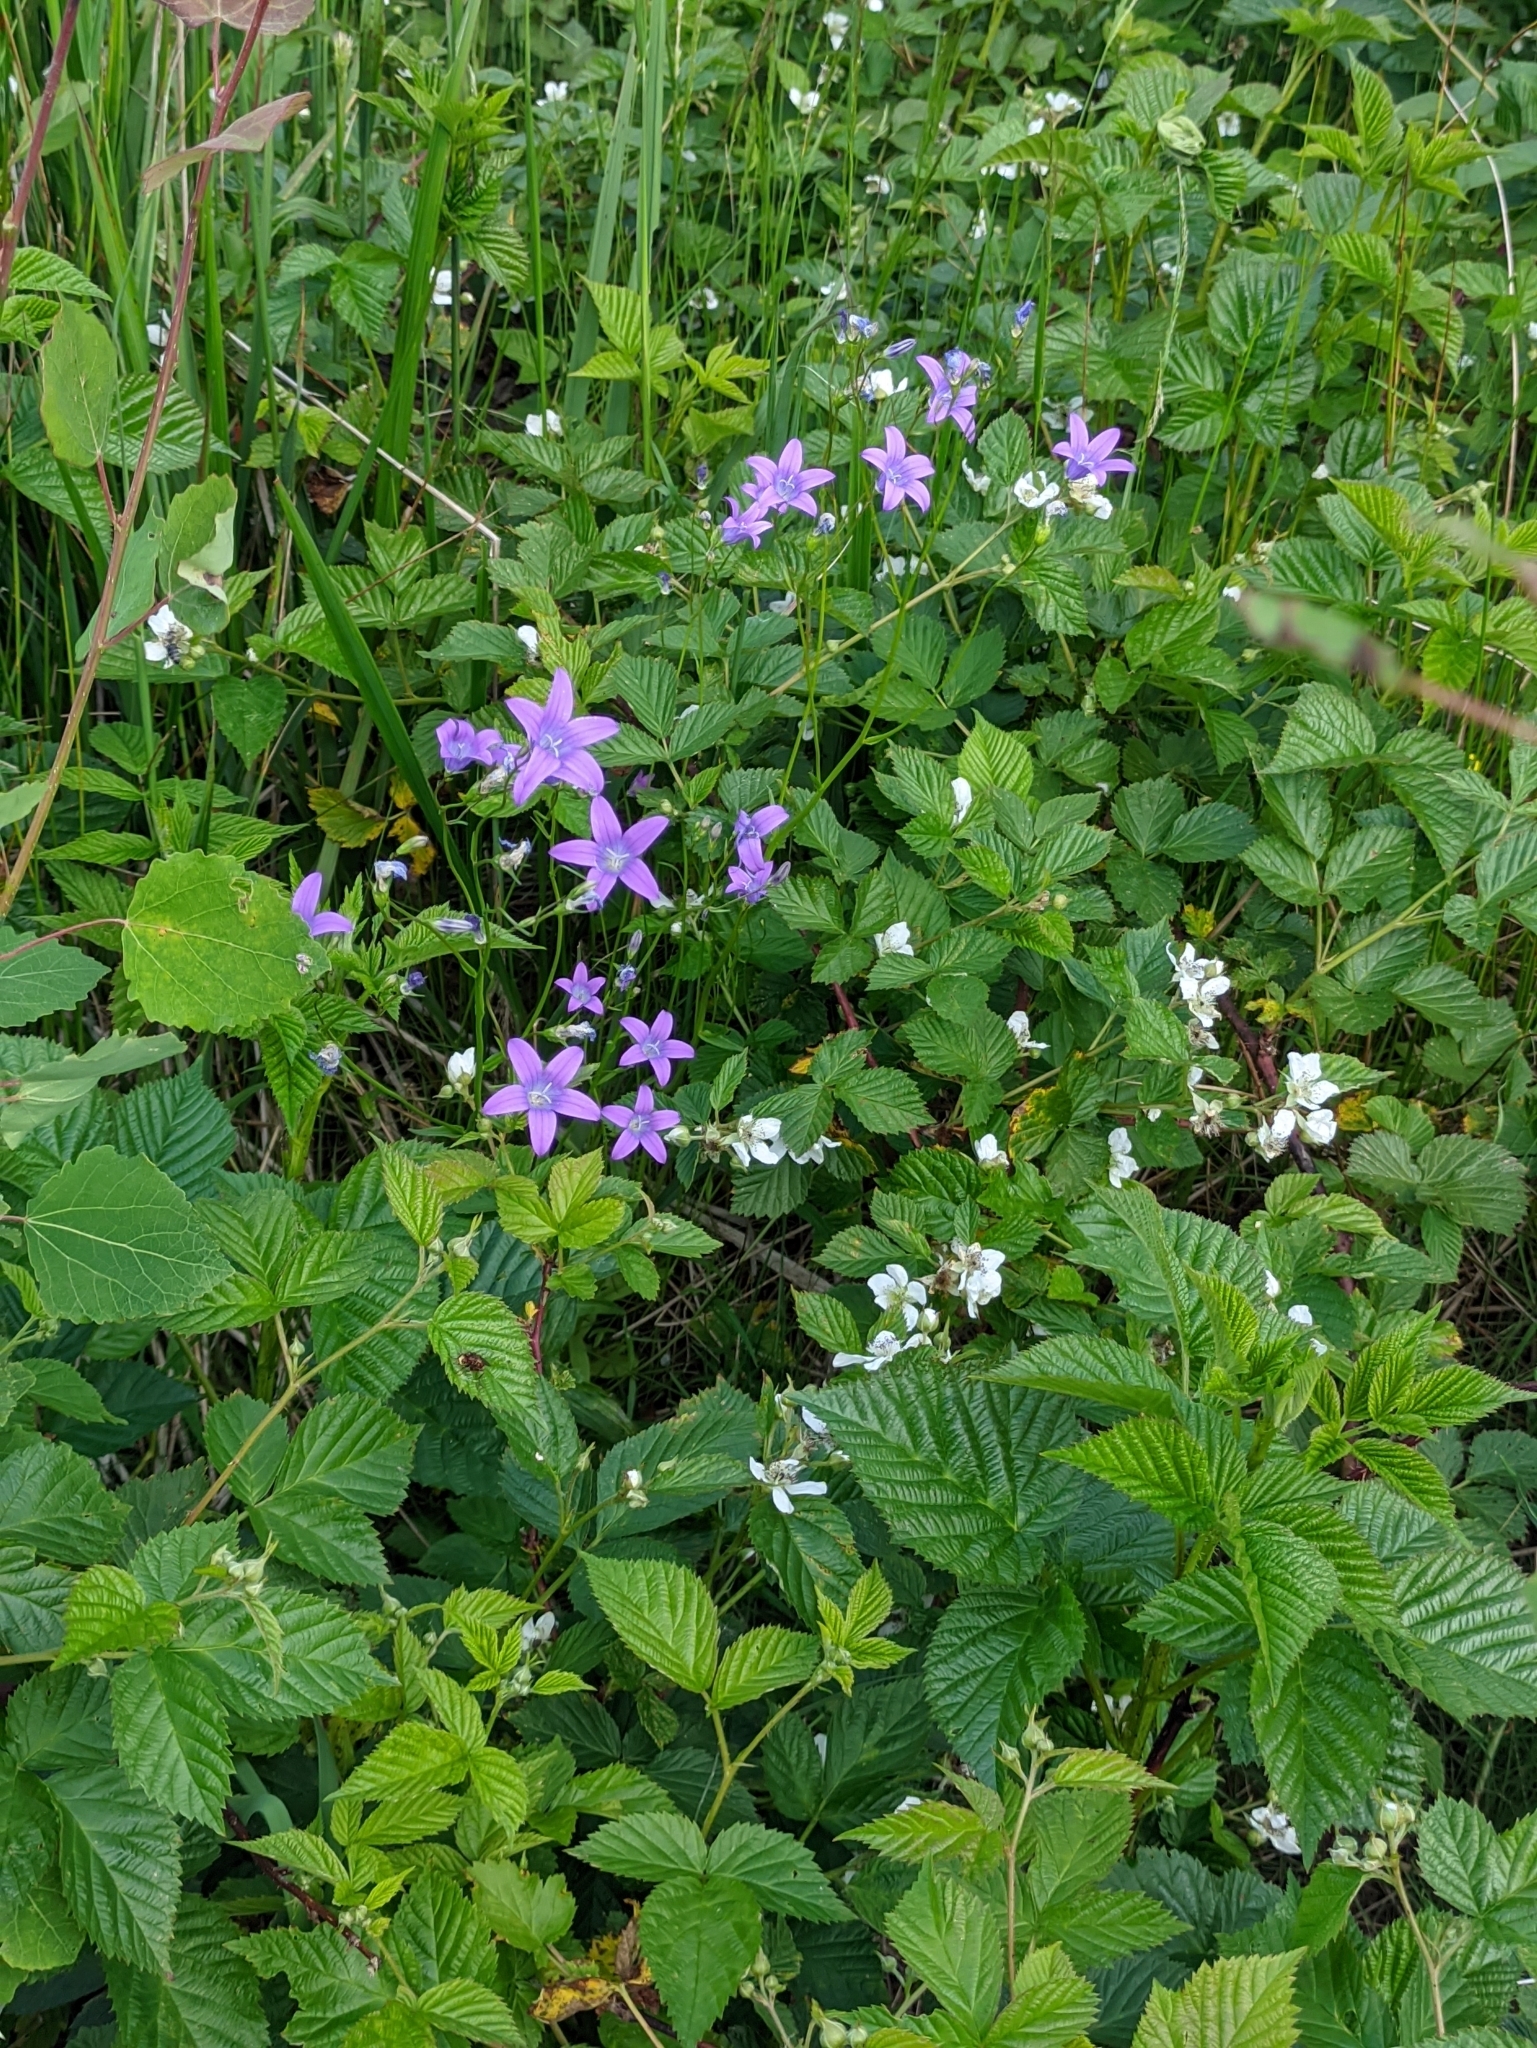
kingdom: Plantae
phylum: Tracheophyta
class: Magnoliopsida
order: Asterales
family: Campanulaceae
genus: Campanula
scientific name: Campanula patula
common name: Spreading bellflower
